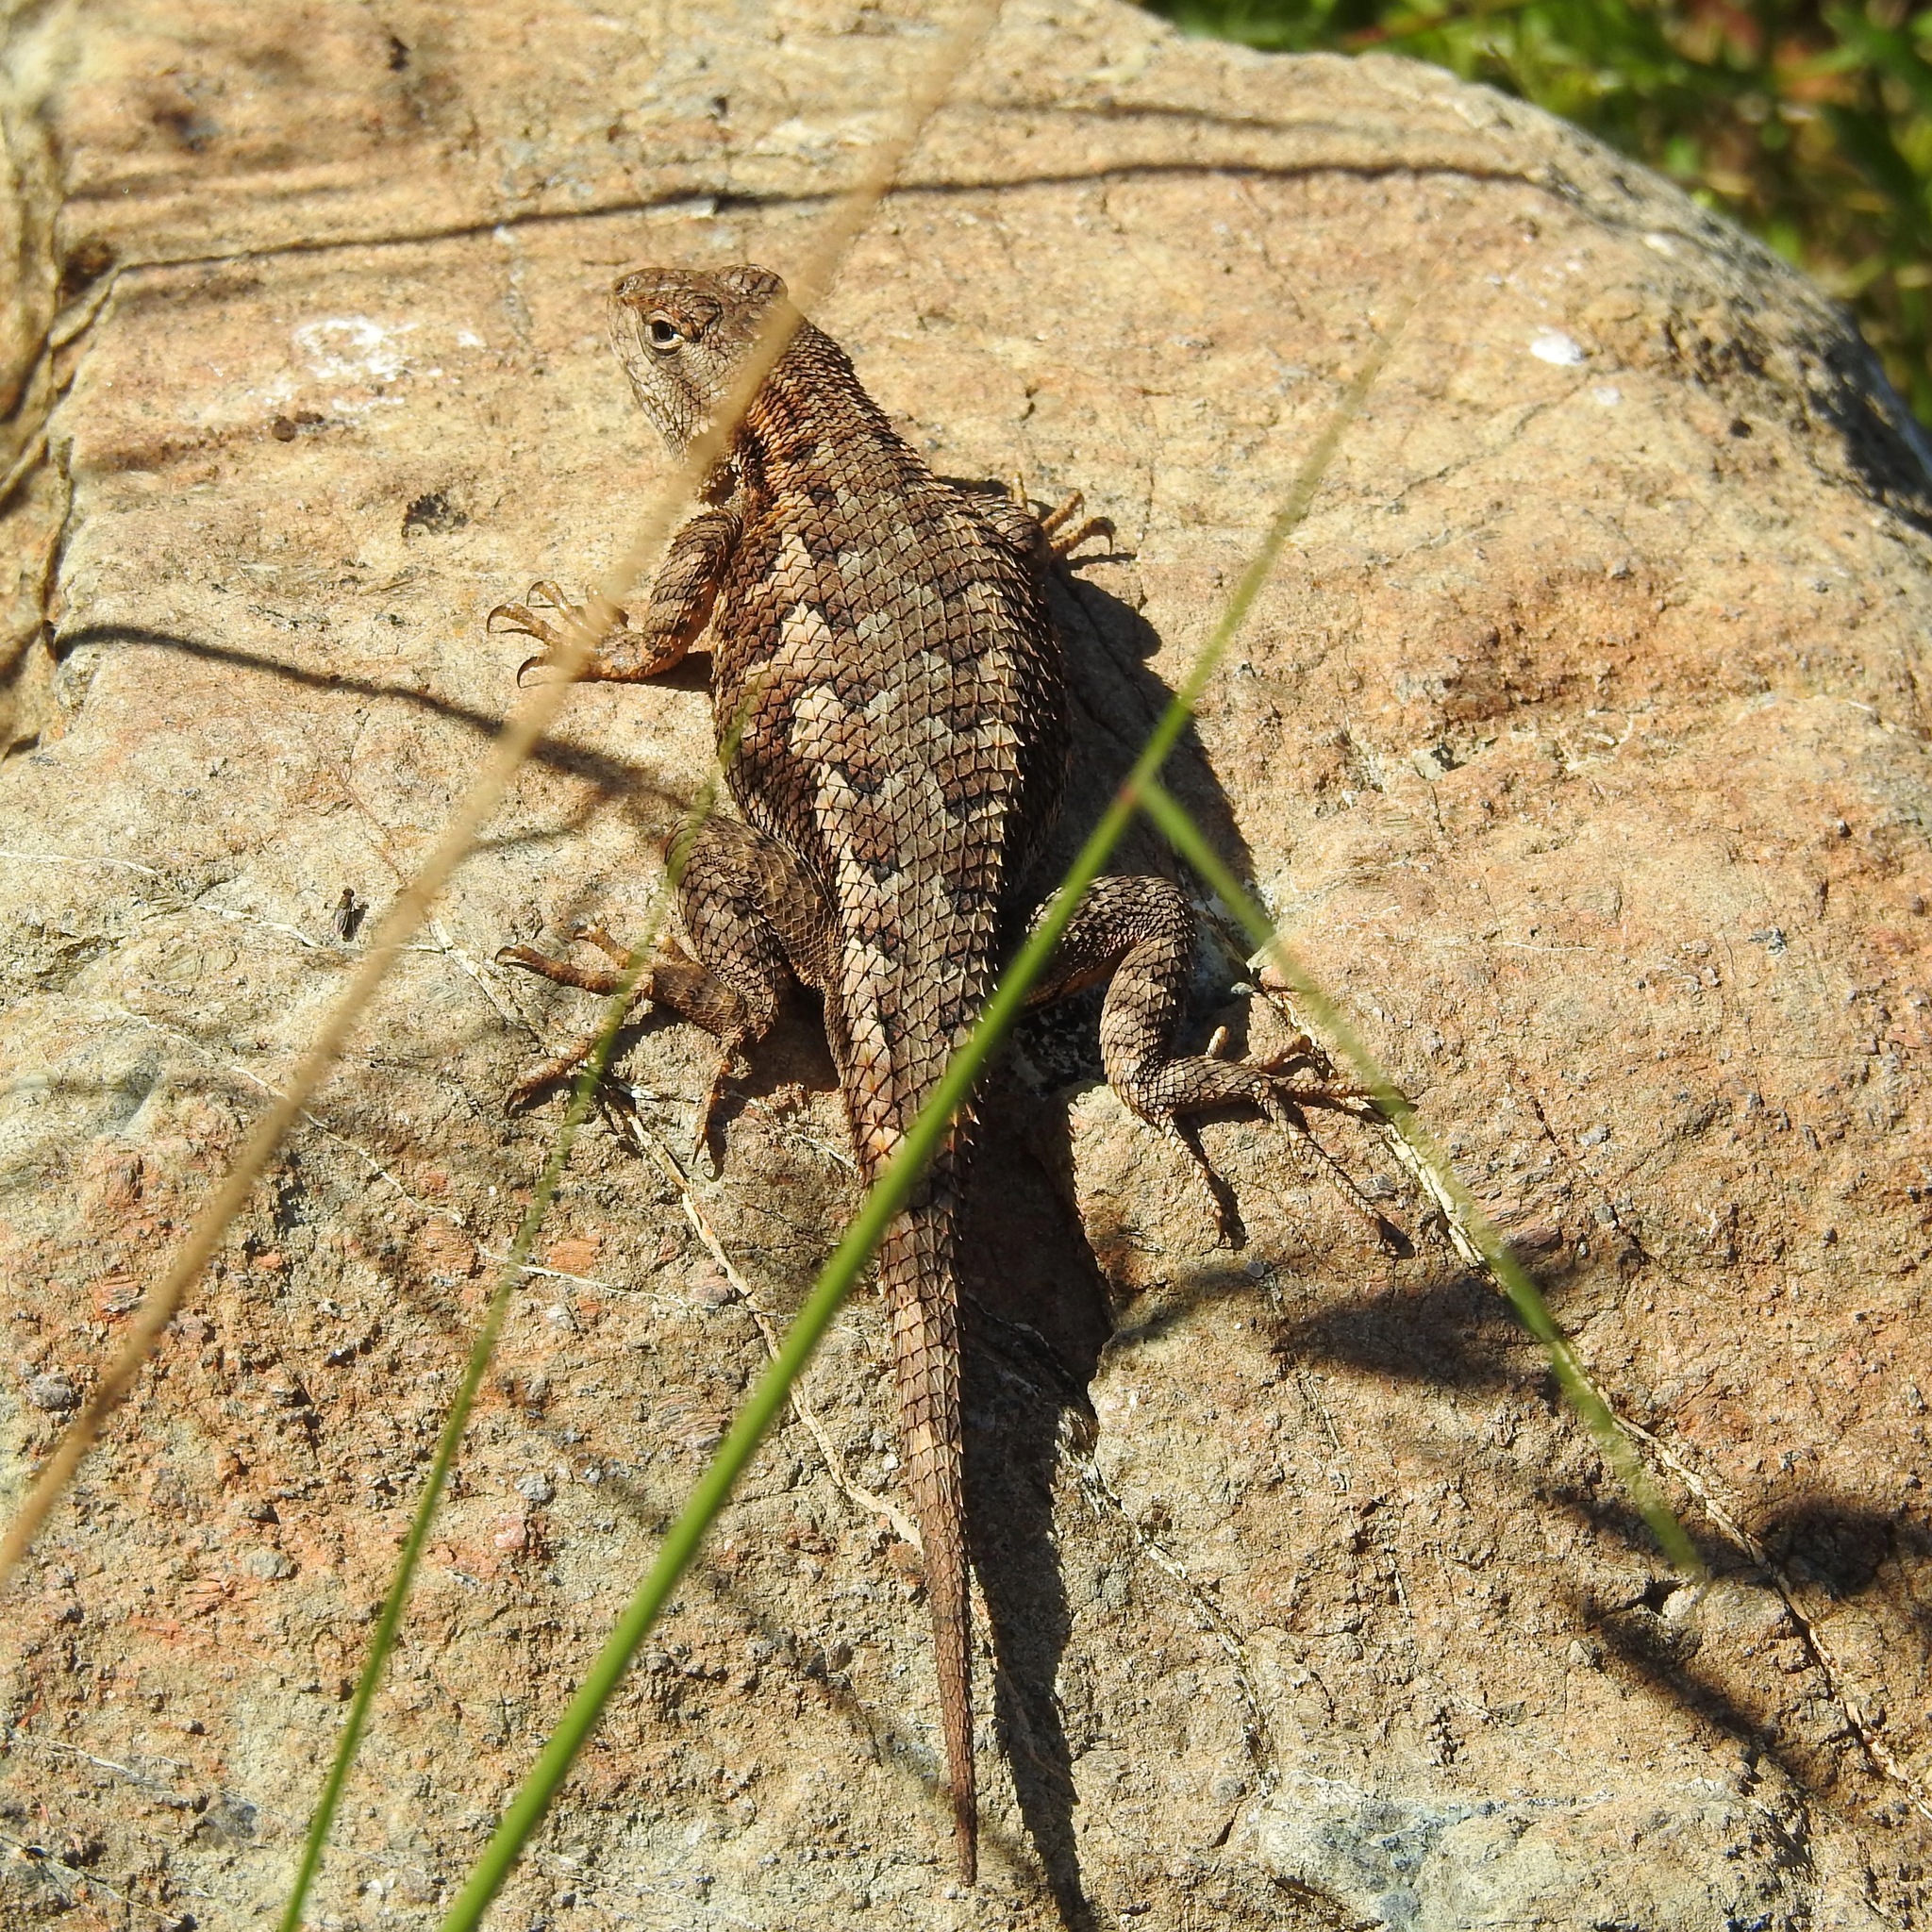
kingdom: Animalia
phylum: Chordata
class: Squamata
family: Phrynosomatidae
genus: Sceloporus
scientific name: Sceloporus occidentalis
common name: Western fence lizard
